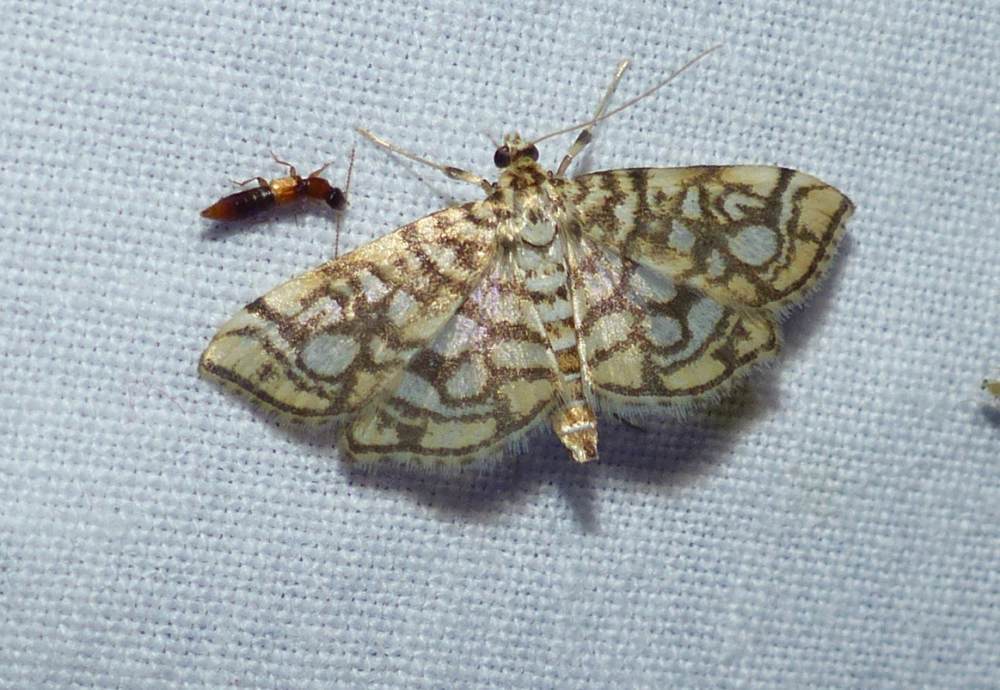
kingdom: Animalia
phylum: Arthropoda
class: Insecta
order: Lepidoptera
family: Crambidae
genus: Lygropia
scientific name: Lygropia rivulalis
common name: Bog lygropia moth
